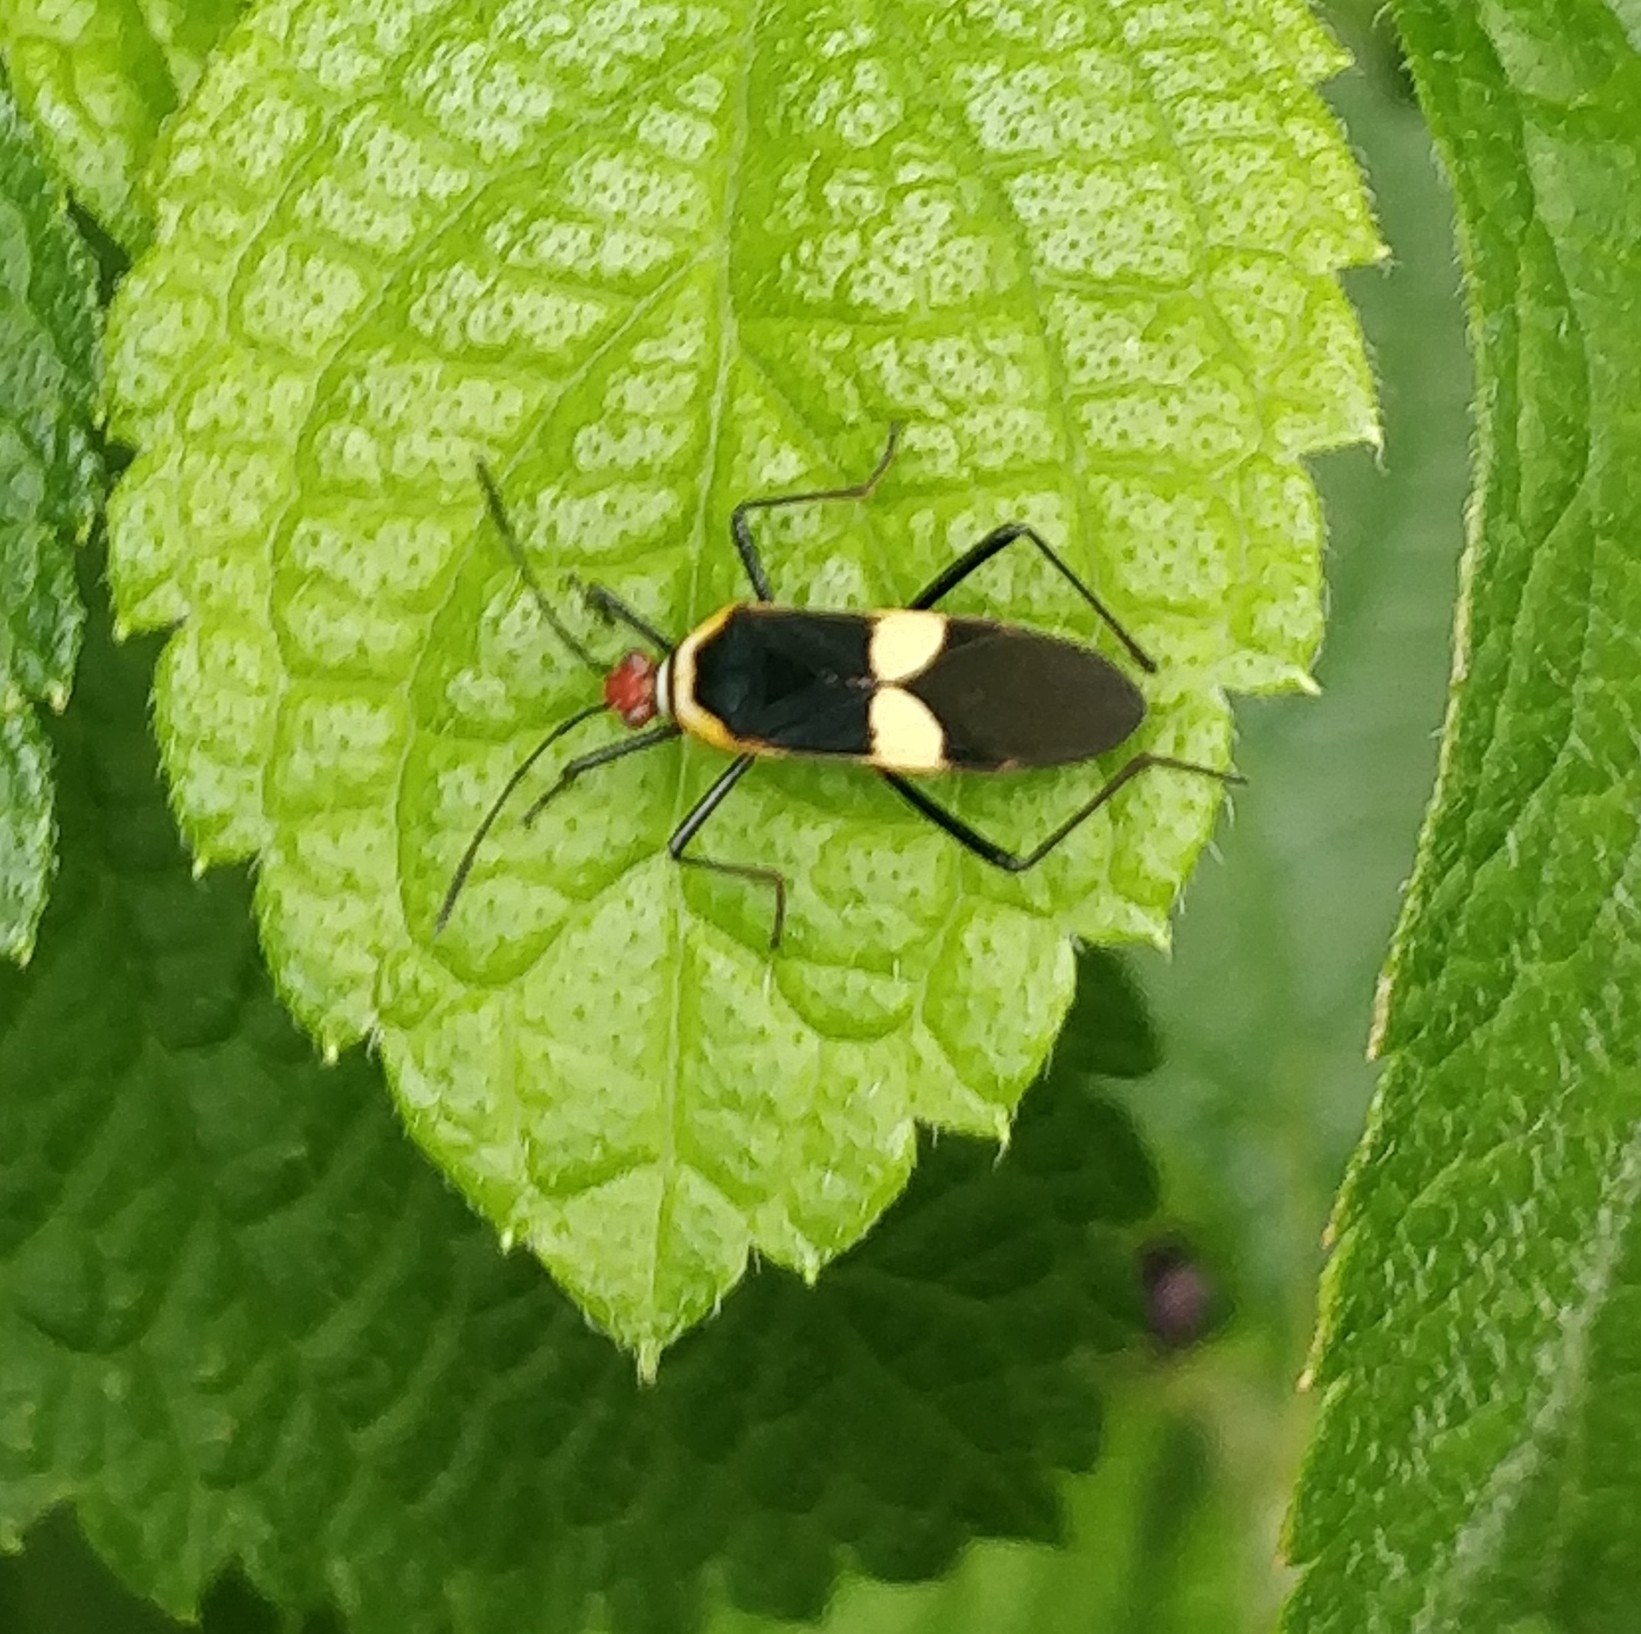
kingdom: Animalia
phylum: Arthropoda
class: Insecta
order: Hemiptera
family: Coreidae
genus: Hypselonotus
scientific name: Hypselonotus interruptus
